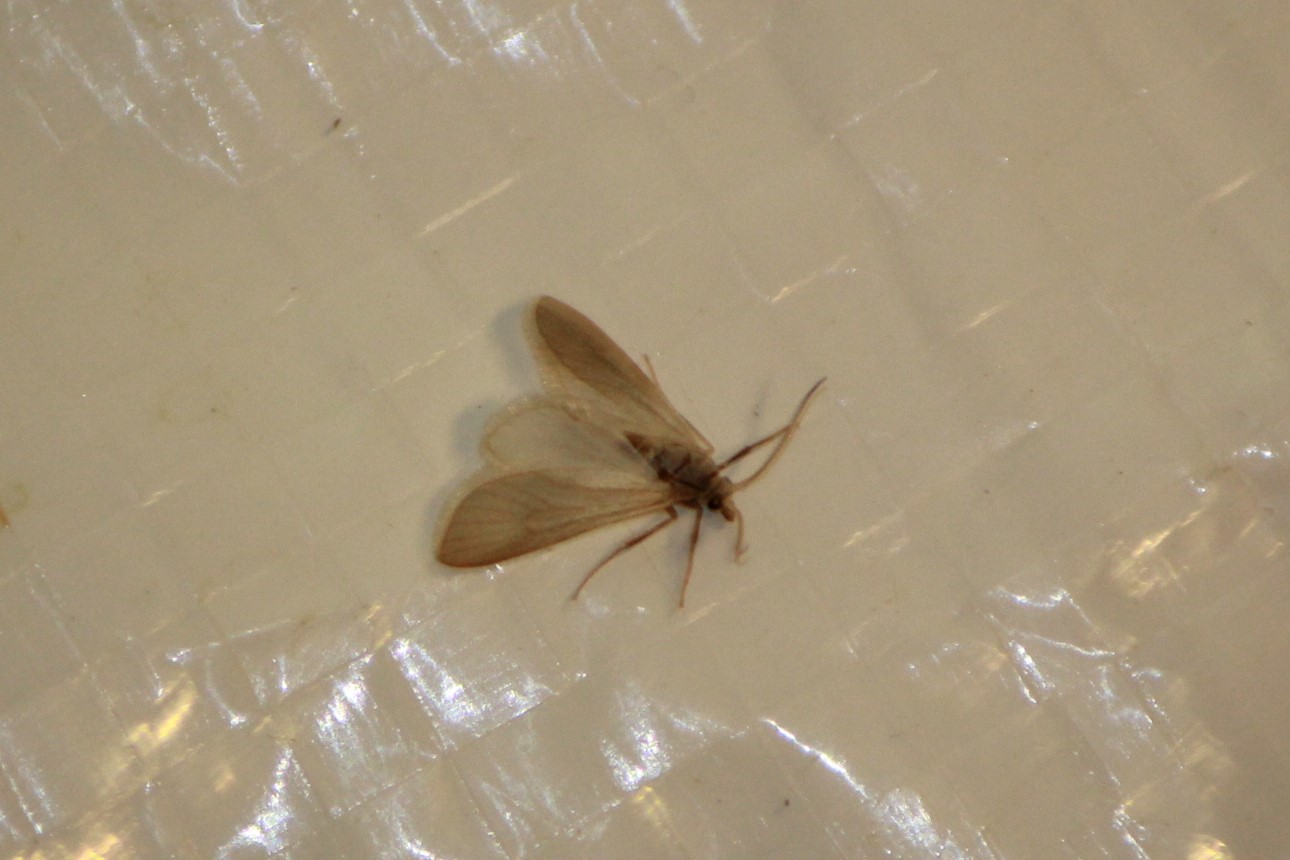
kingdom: Animalia
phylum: Arthropoda
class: Insecta
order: Lepidoptera
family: Crambidae
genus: Acentria
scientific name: Acentria ephemerella
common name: European water moth
